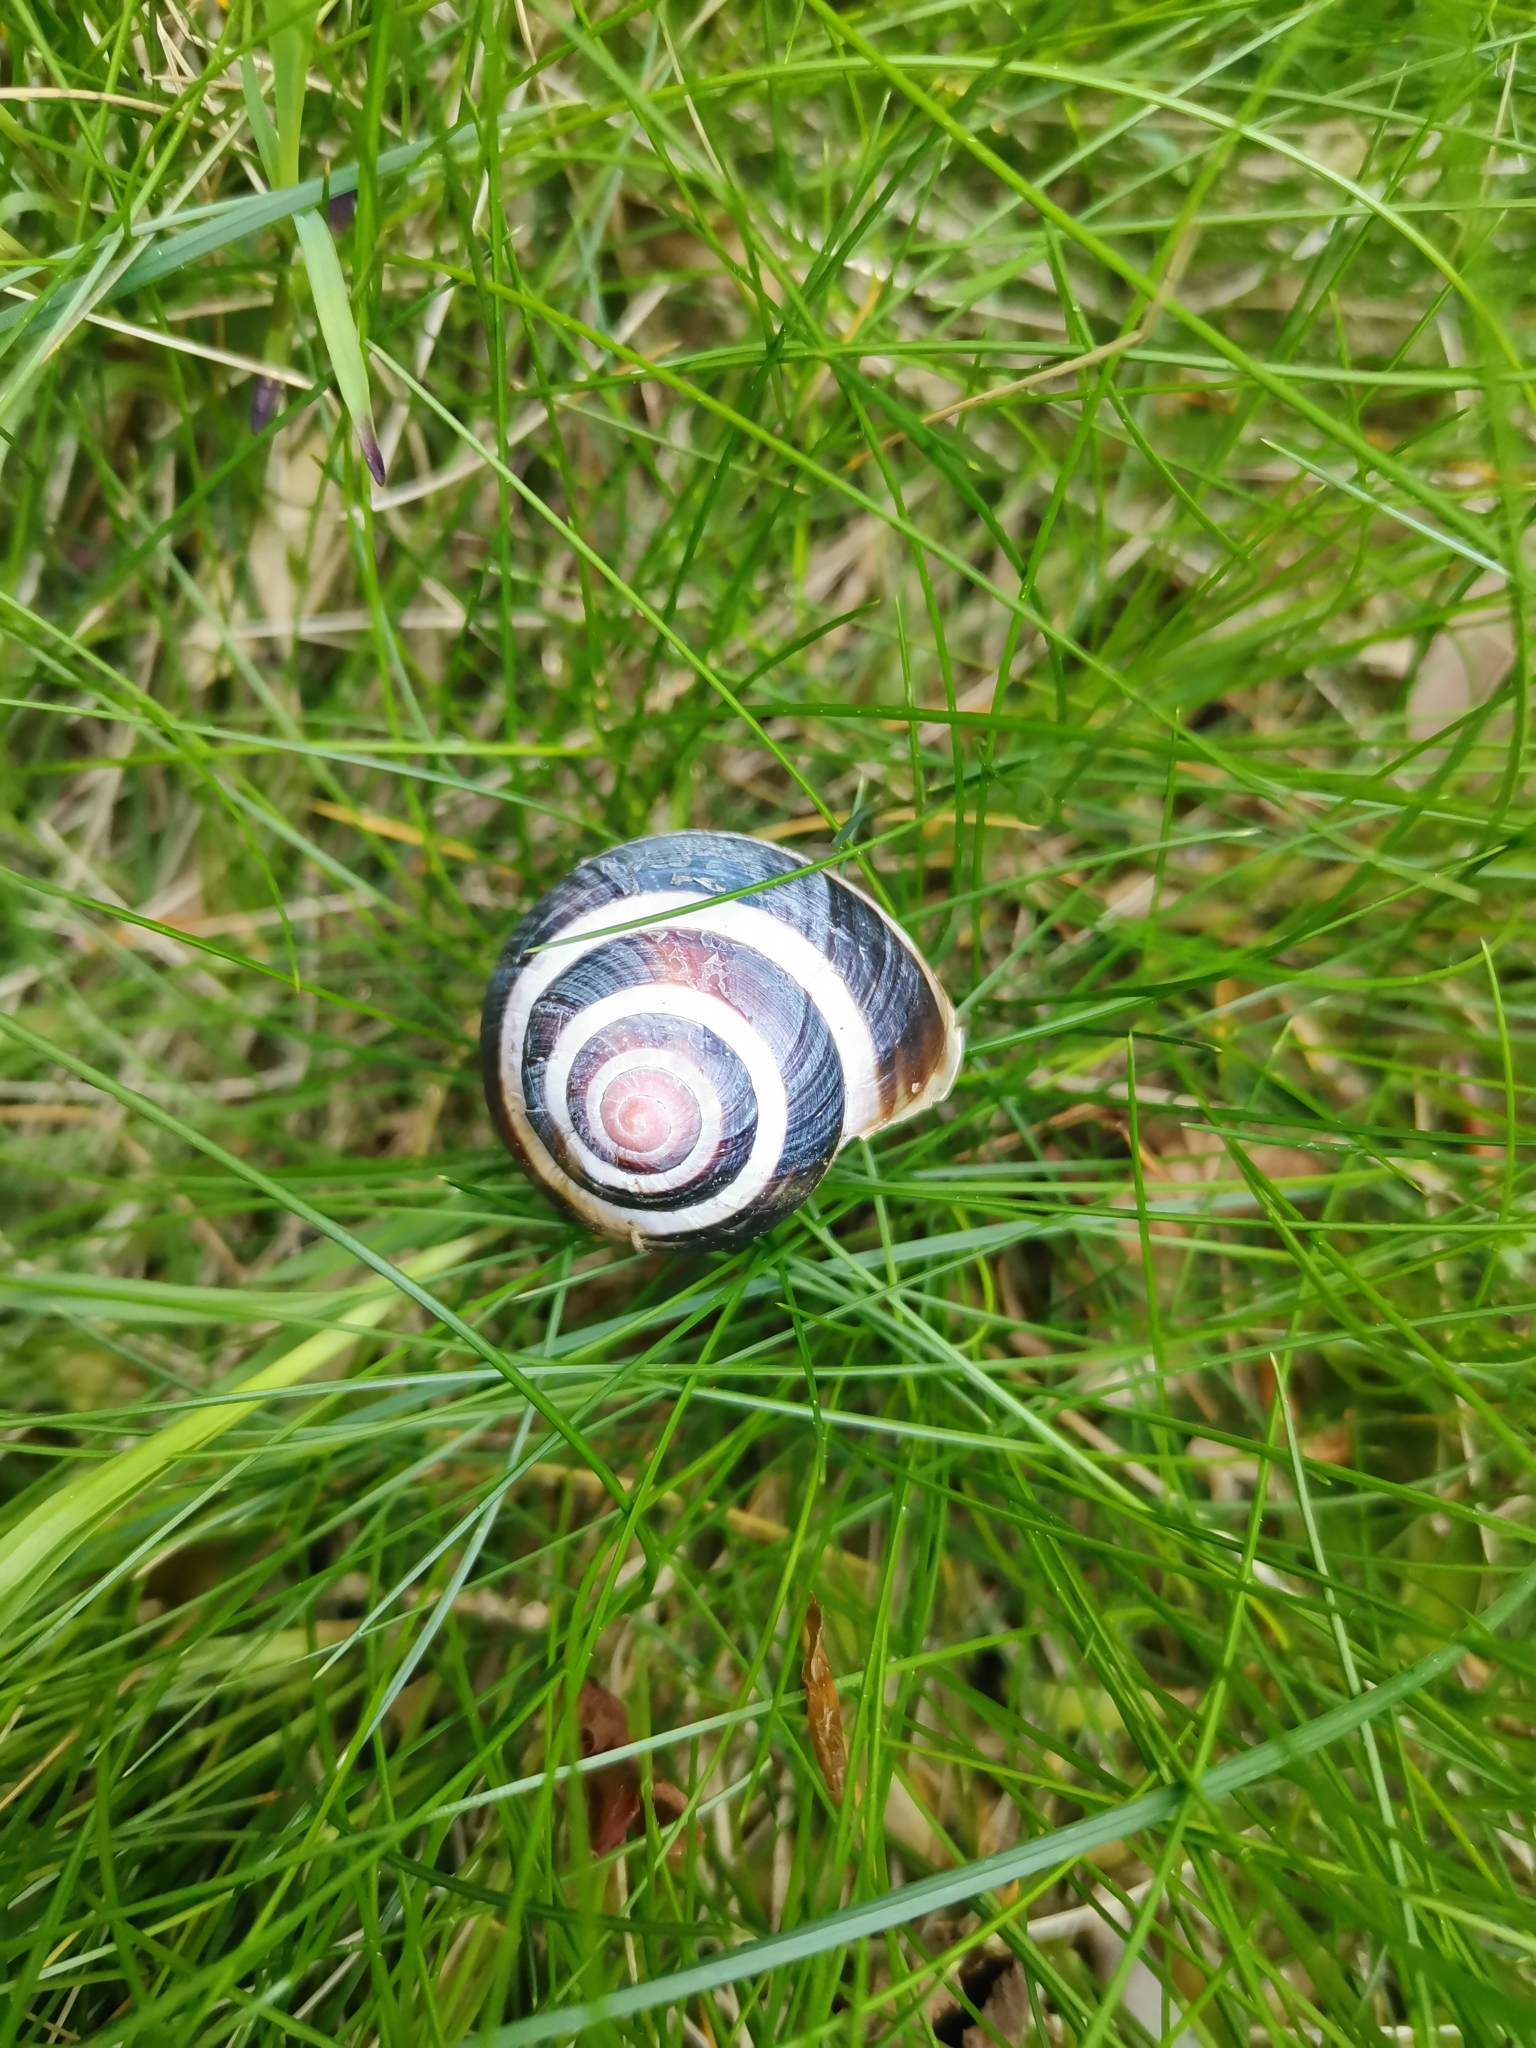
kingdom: Animalia
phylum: Mollusca
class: Gastropoda
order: Stylommatophora
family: Helicidae
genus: Cepaea
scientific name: Cepaea nemoralis
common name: Grovesnail
